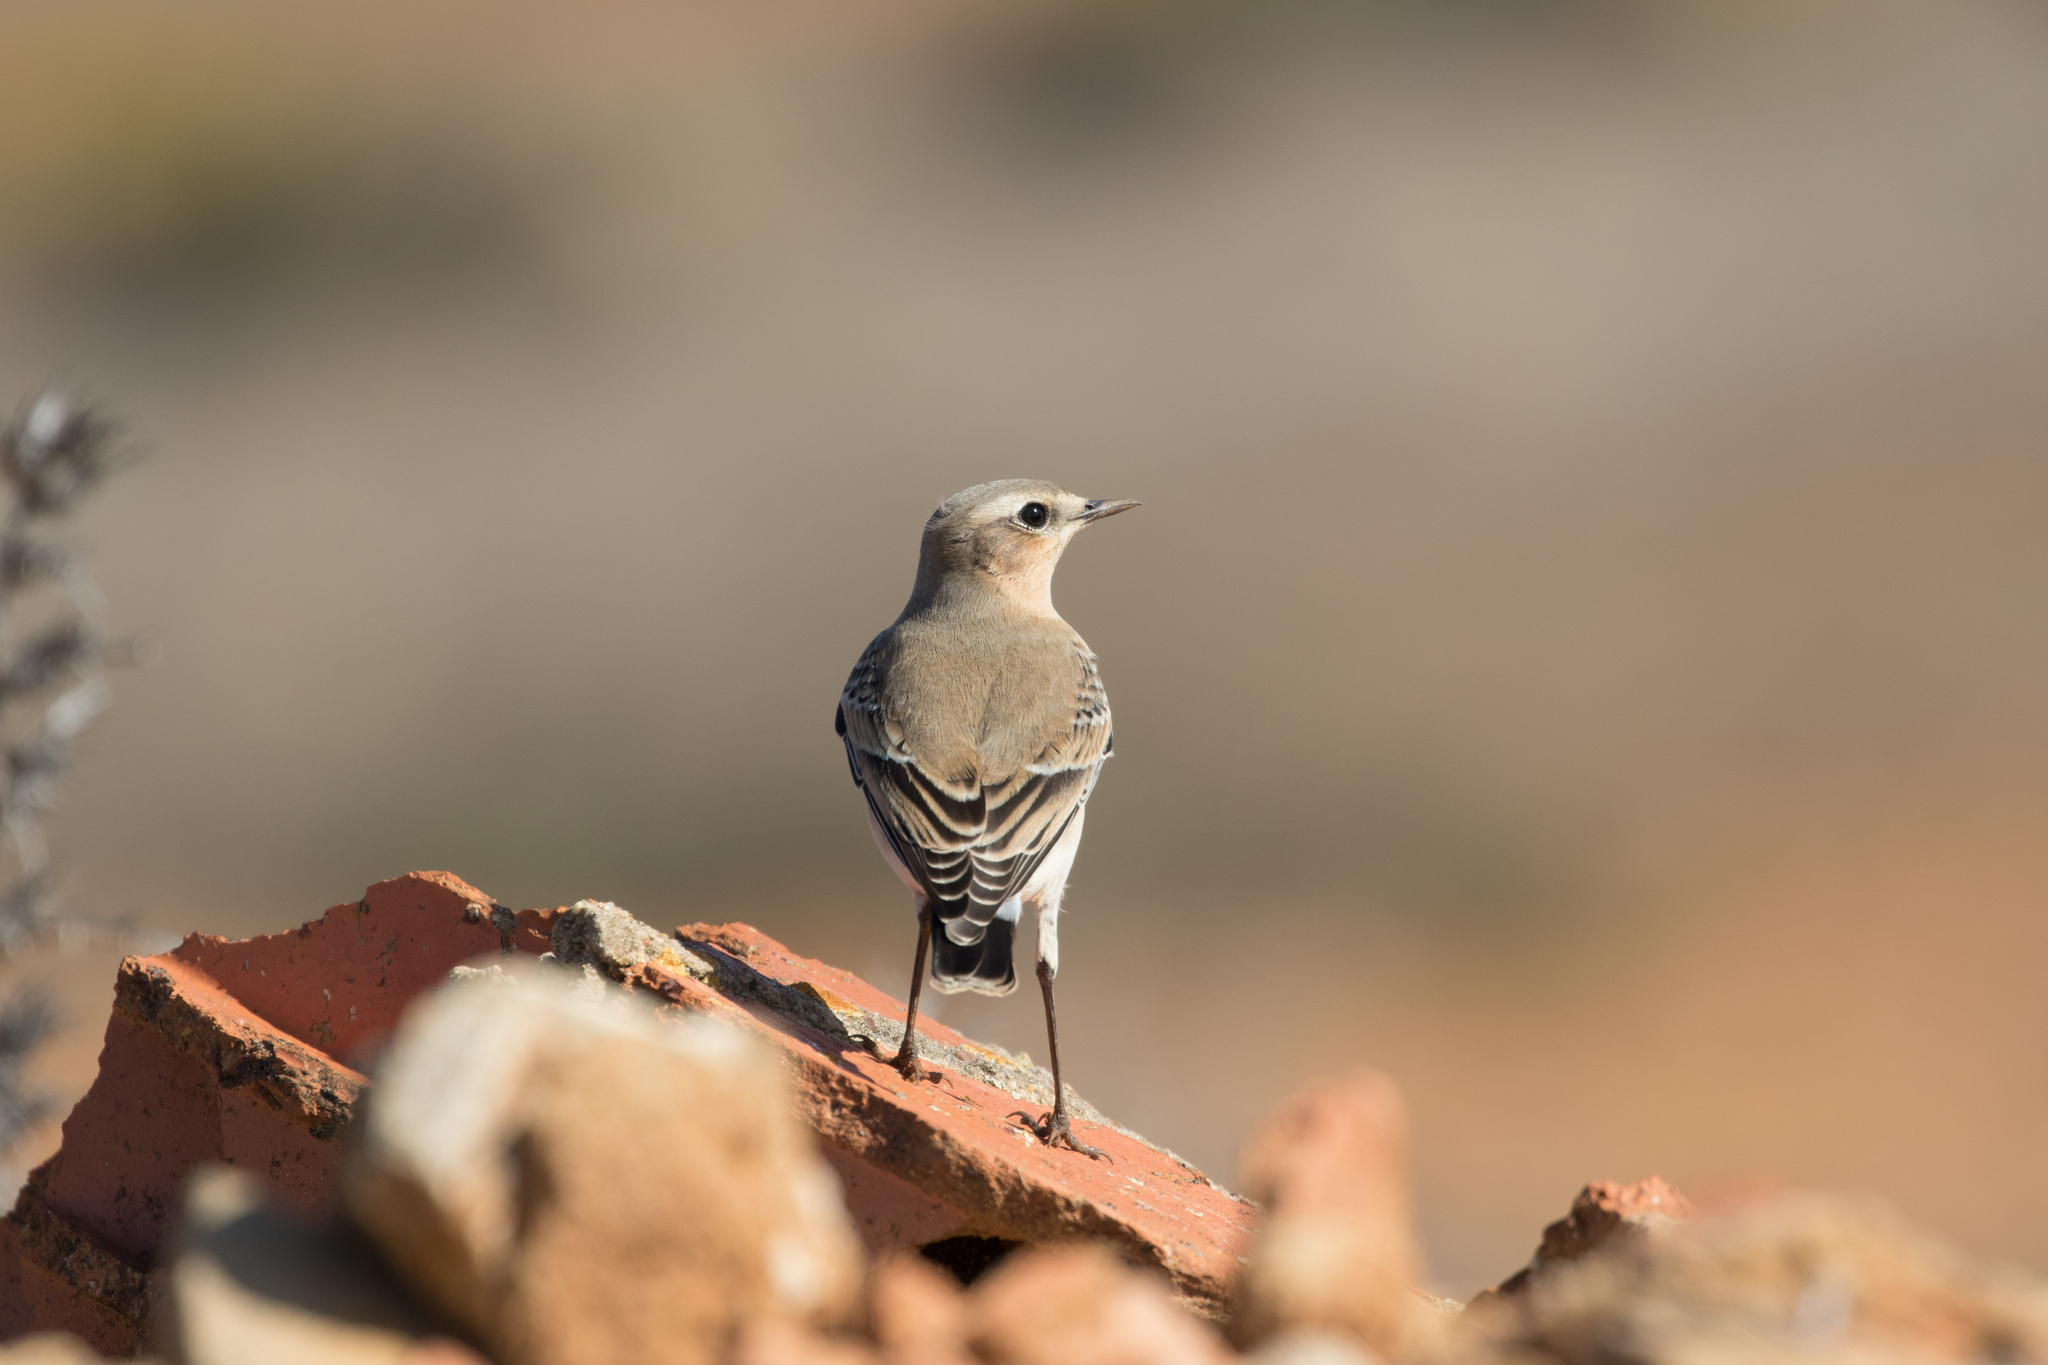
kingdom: Animalia
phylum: Chordata
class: Aves
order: Passeriformes
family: Muscicapidae
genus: Oenanthe
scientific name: Oenanthe oenanthe
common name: Northern wheatear
